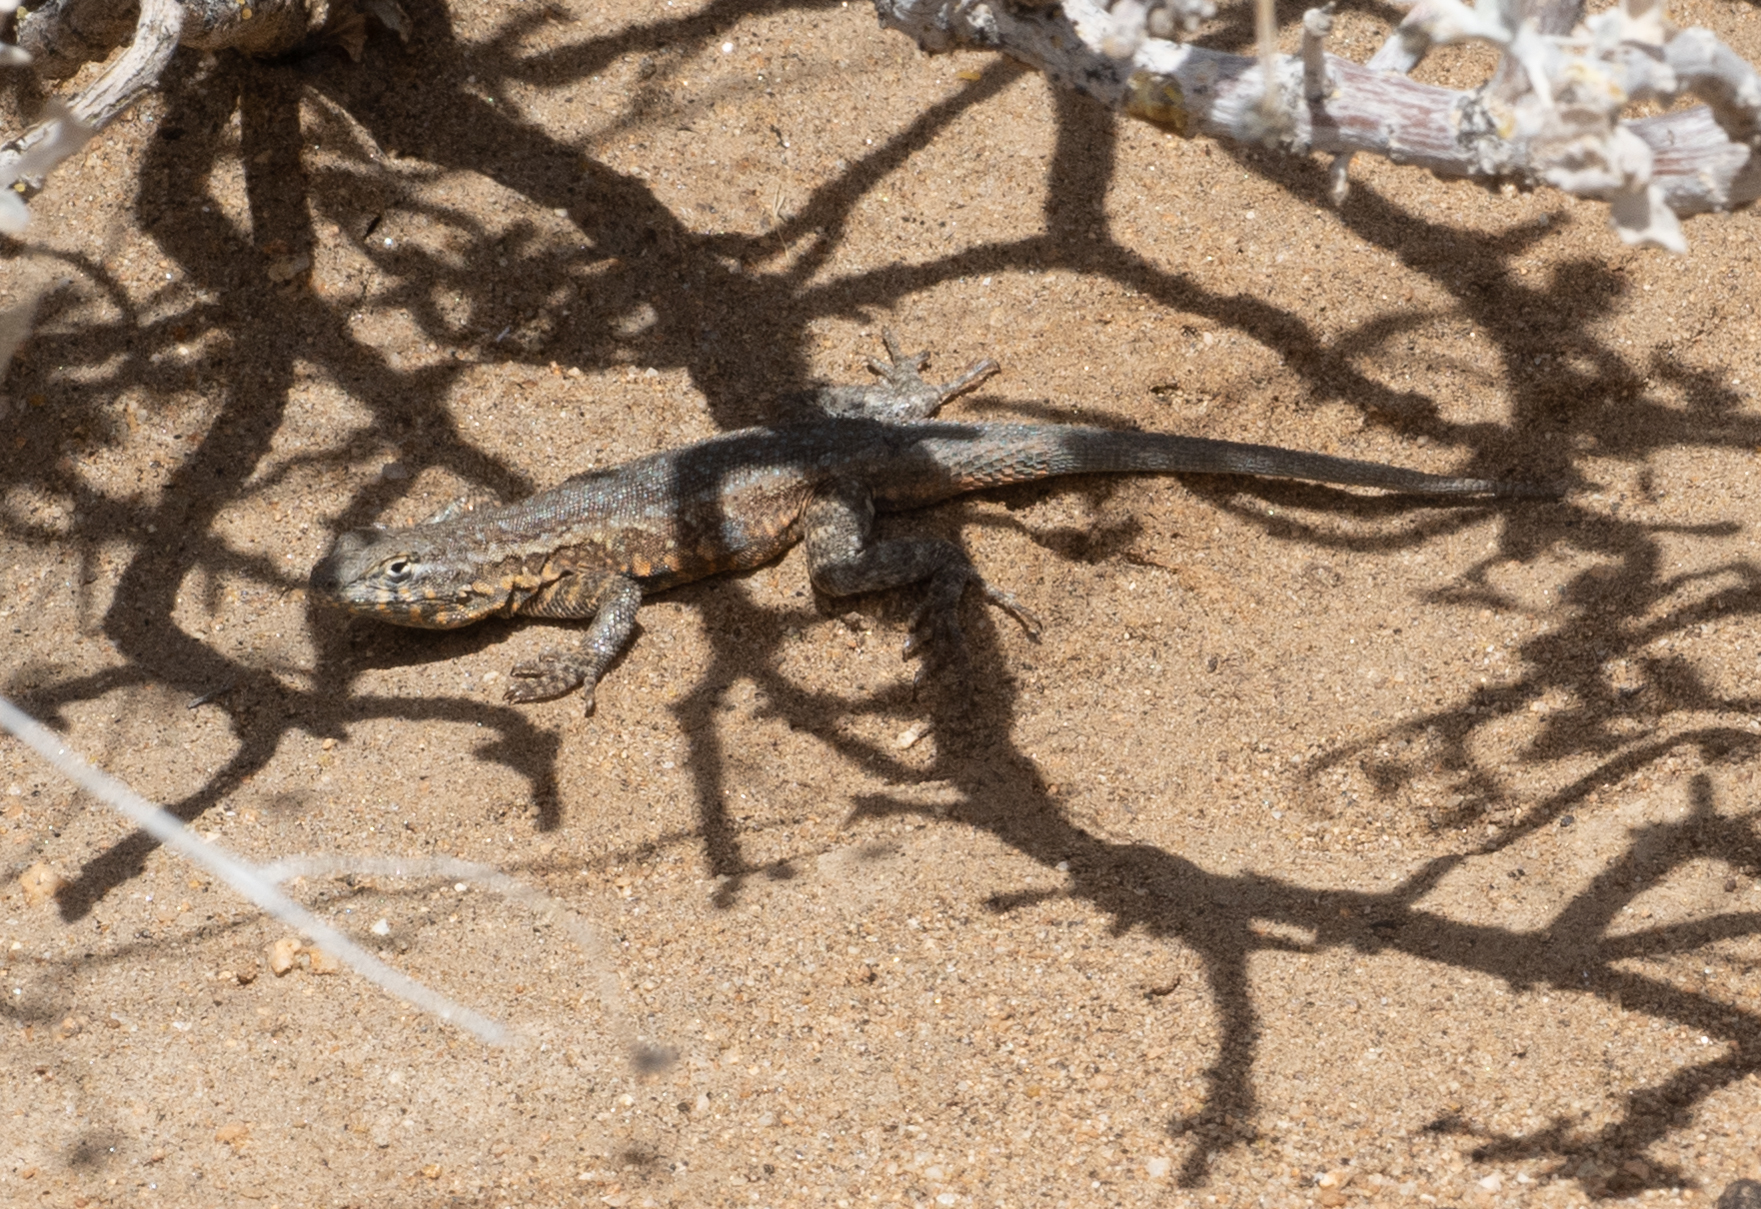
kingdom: Animalia
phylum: Chordata
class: Squamata
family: Phrynosomatidae
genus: Uta
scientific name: Uta stansburiana
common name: Side-blotched lizard
